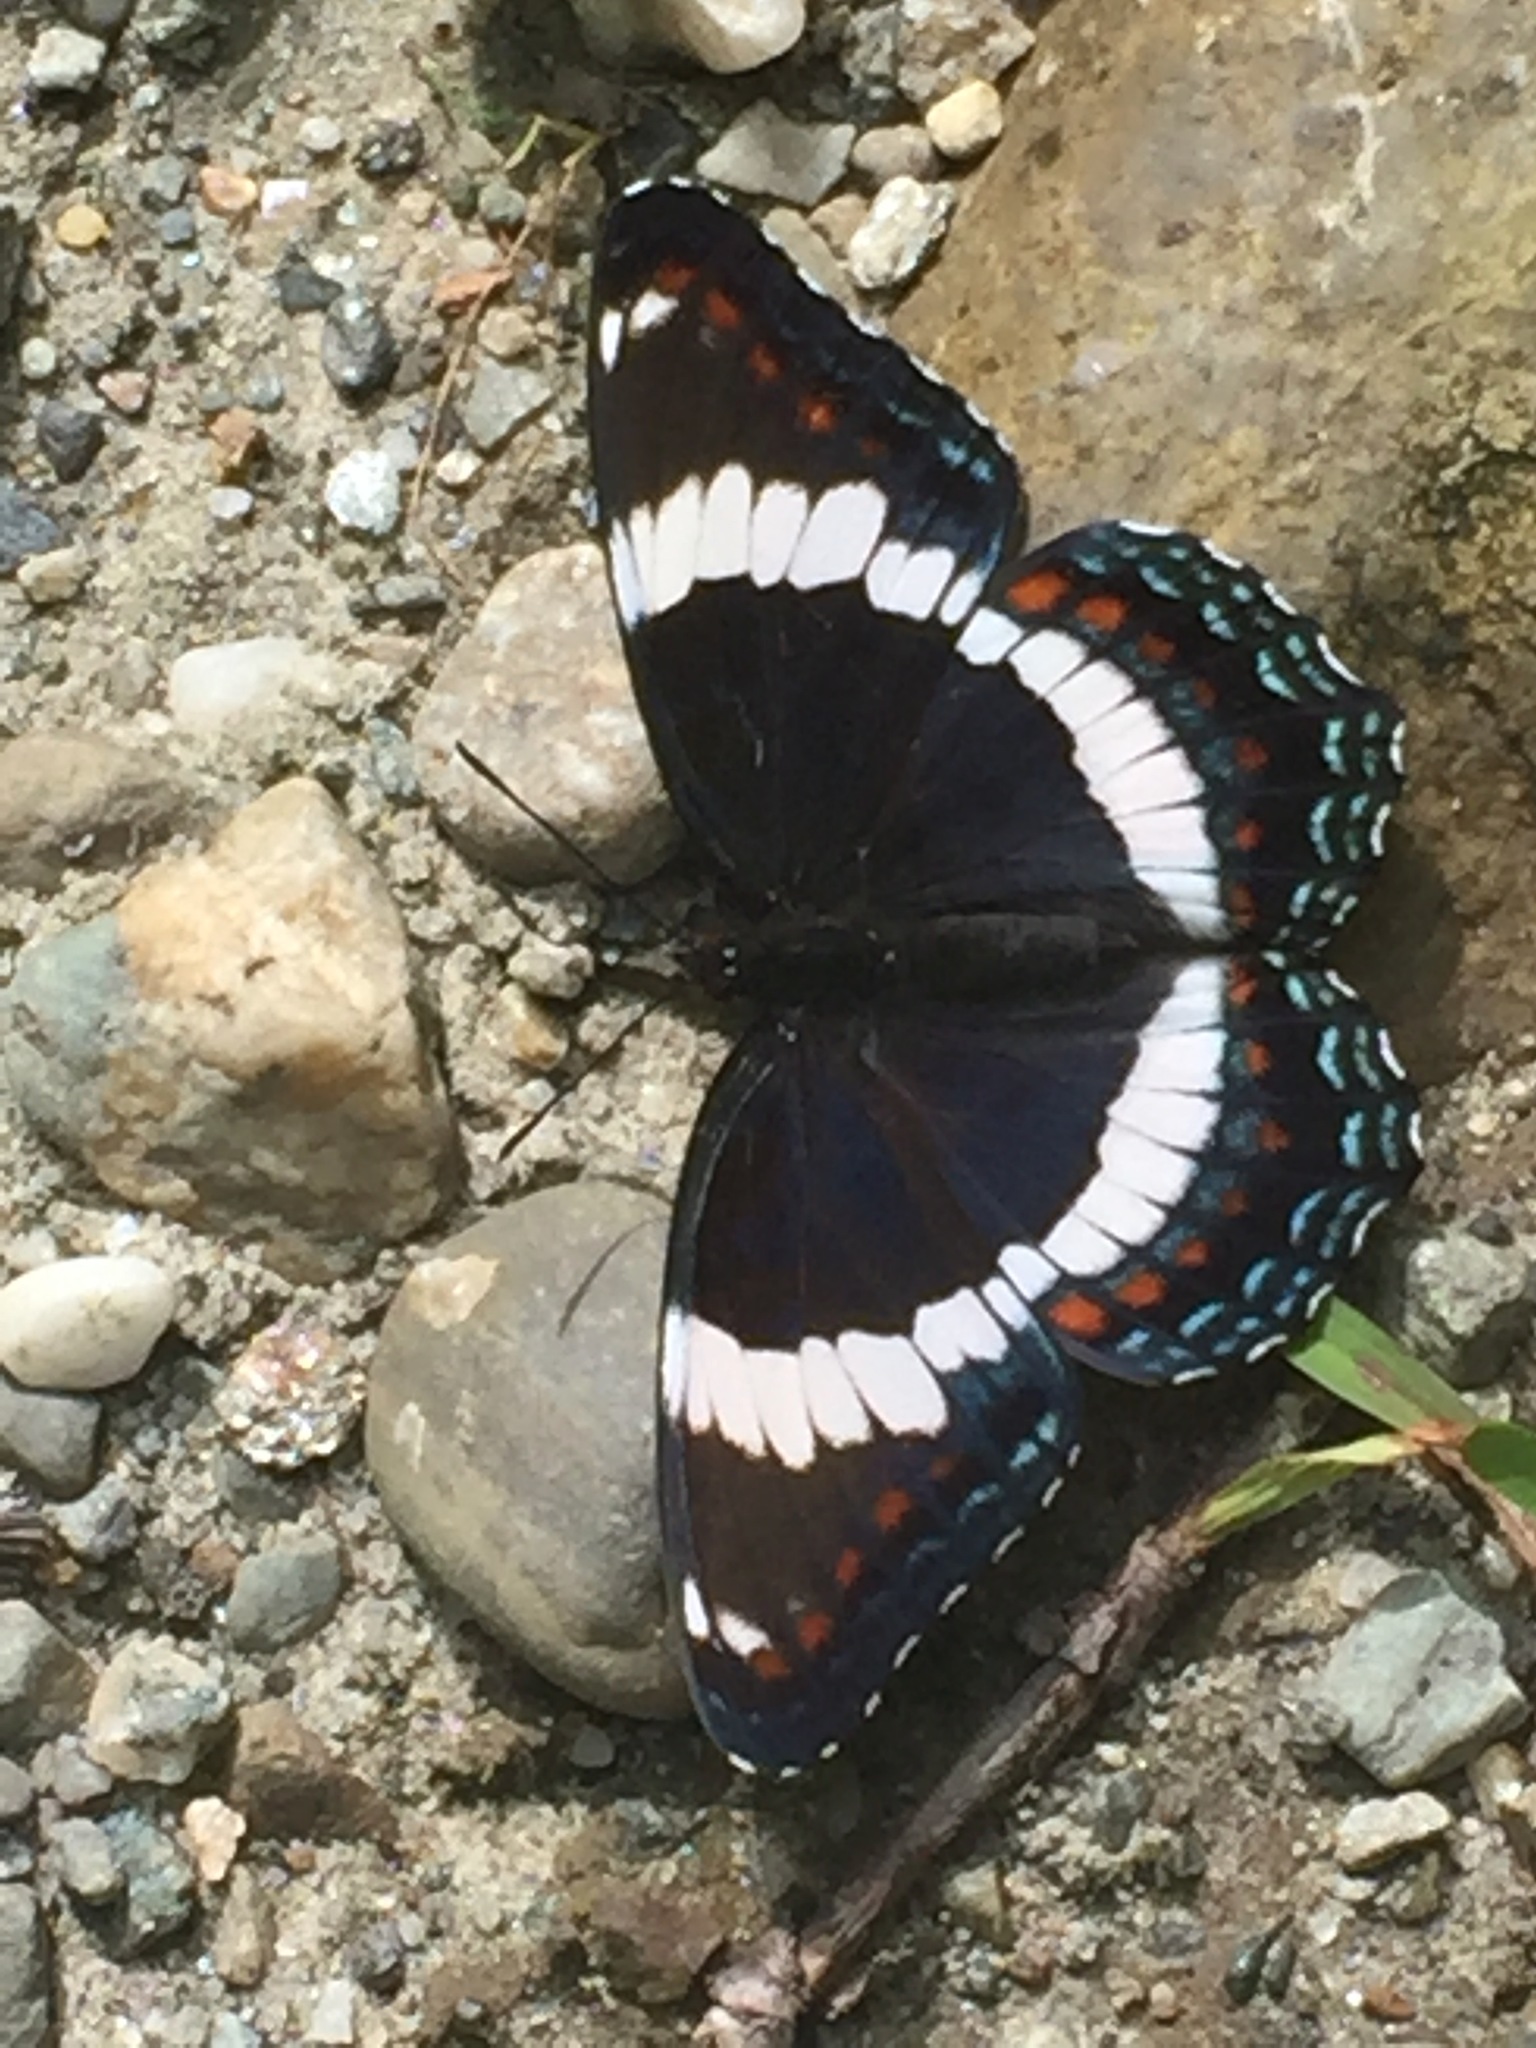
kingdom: Animalia
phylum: Arthropoda
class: Insecta
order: Lepidoptera
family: Nymphalidae
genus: Limenitis
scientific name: Limenitis arthemis
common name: Red-spotted admiral
